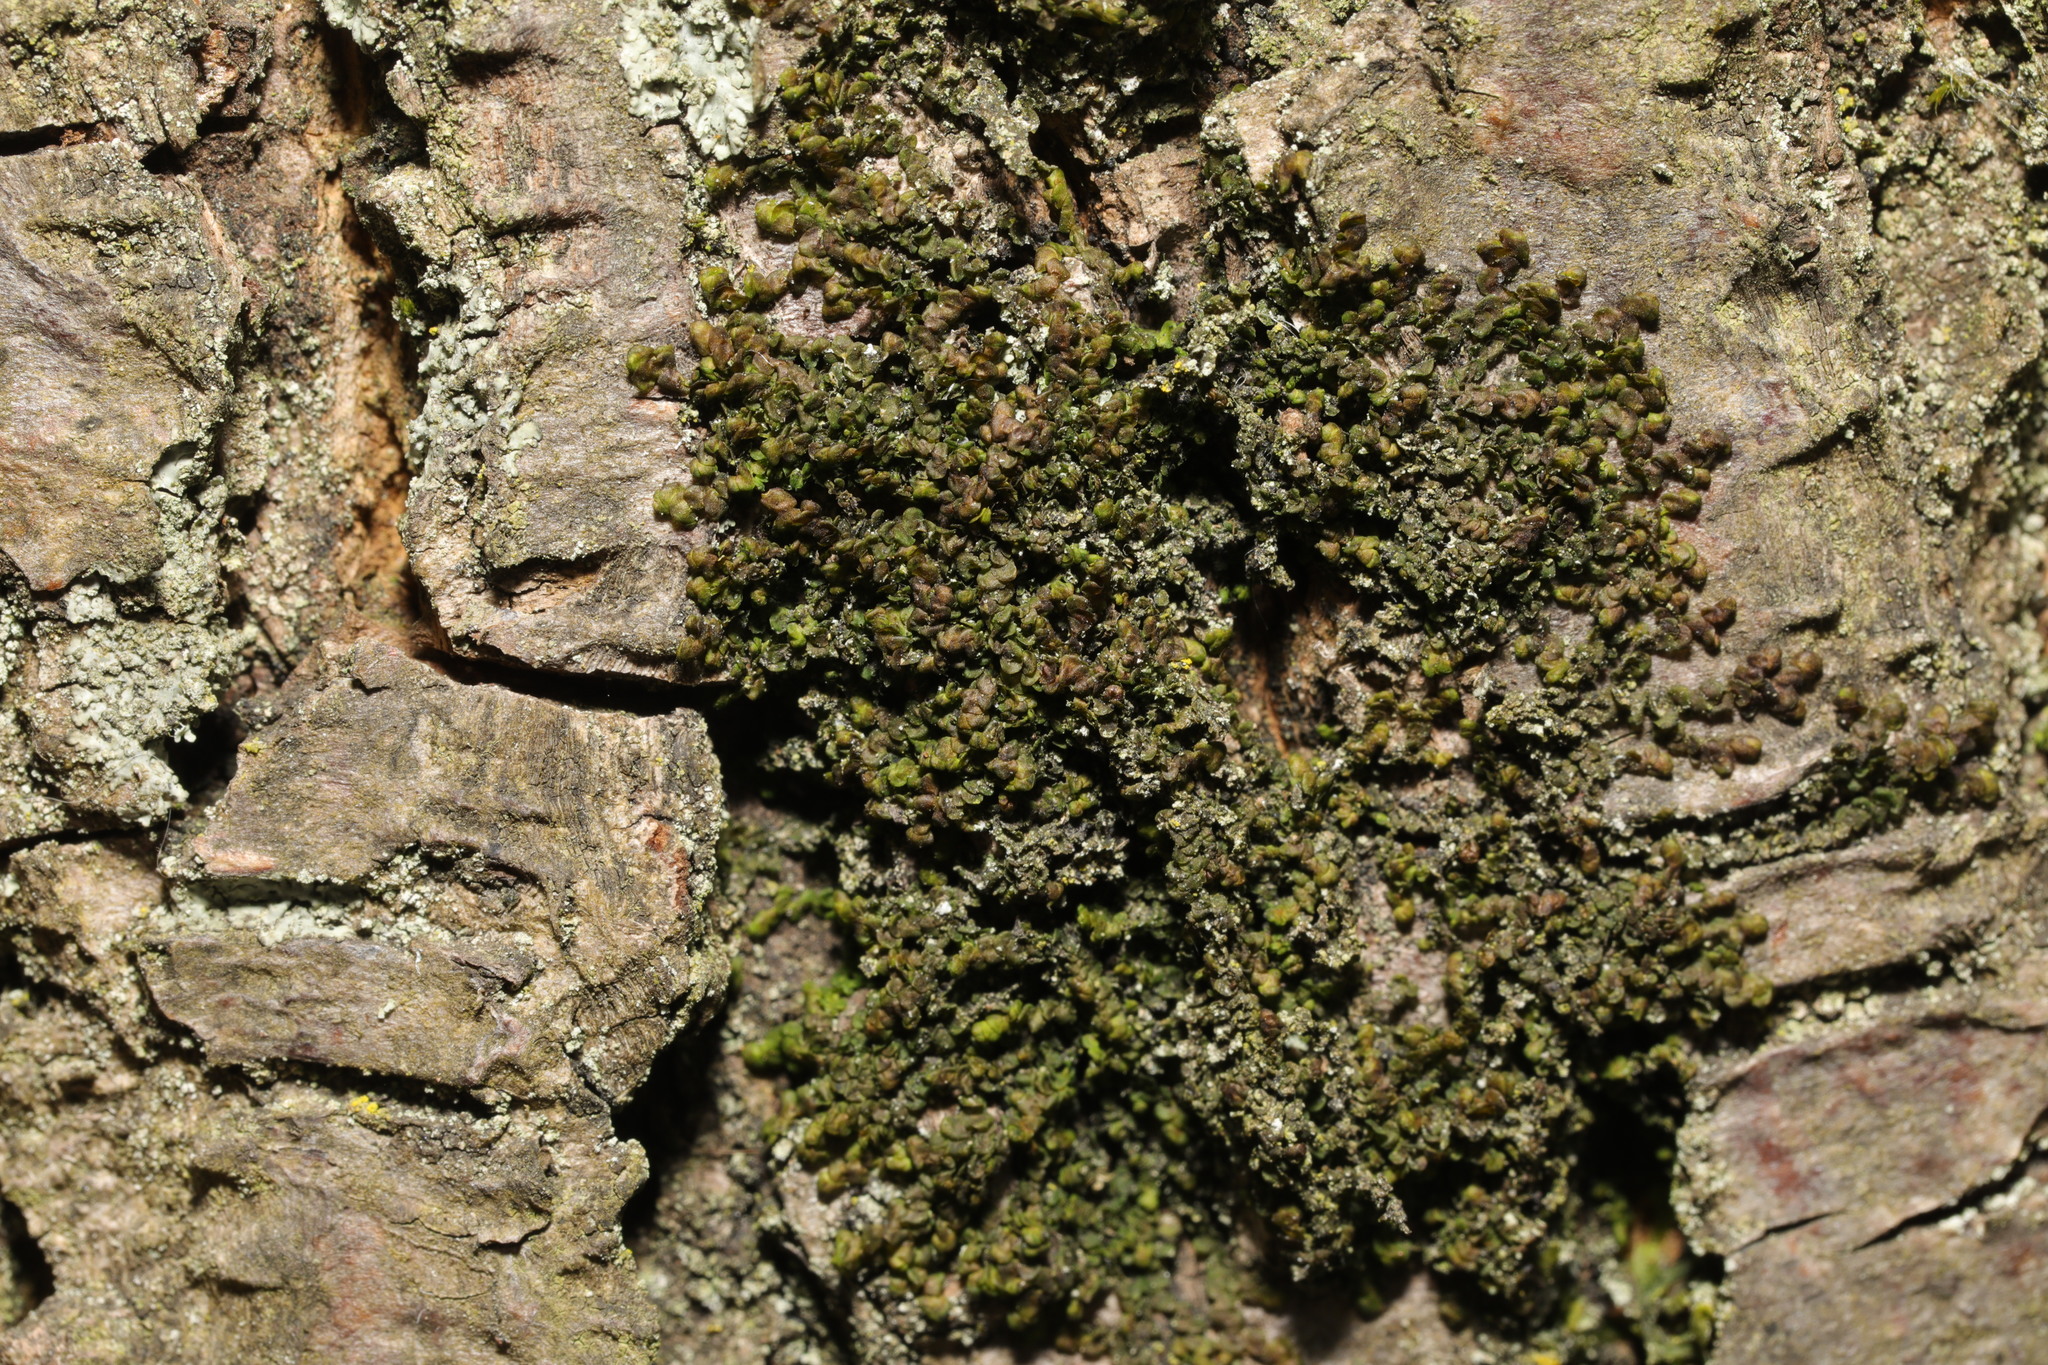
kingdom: Plantae
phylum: Marchantiophyta
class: Jungermanniopsida
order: Porellales
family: Frullaniaceae
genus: Frullania
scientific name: Frullania dilatata
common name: Dilated scalewort
